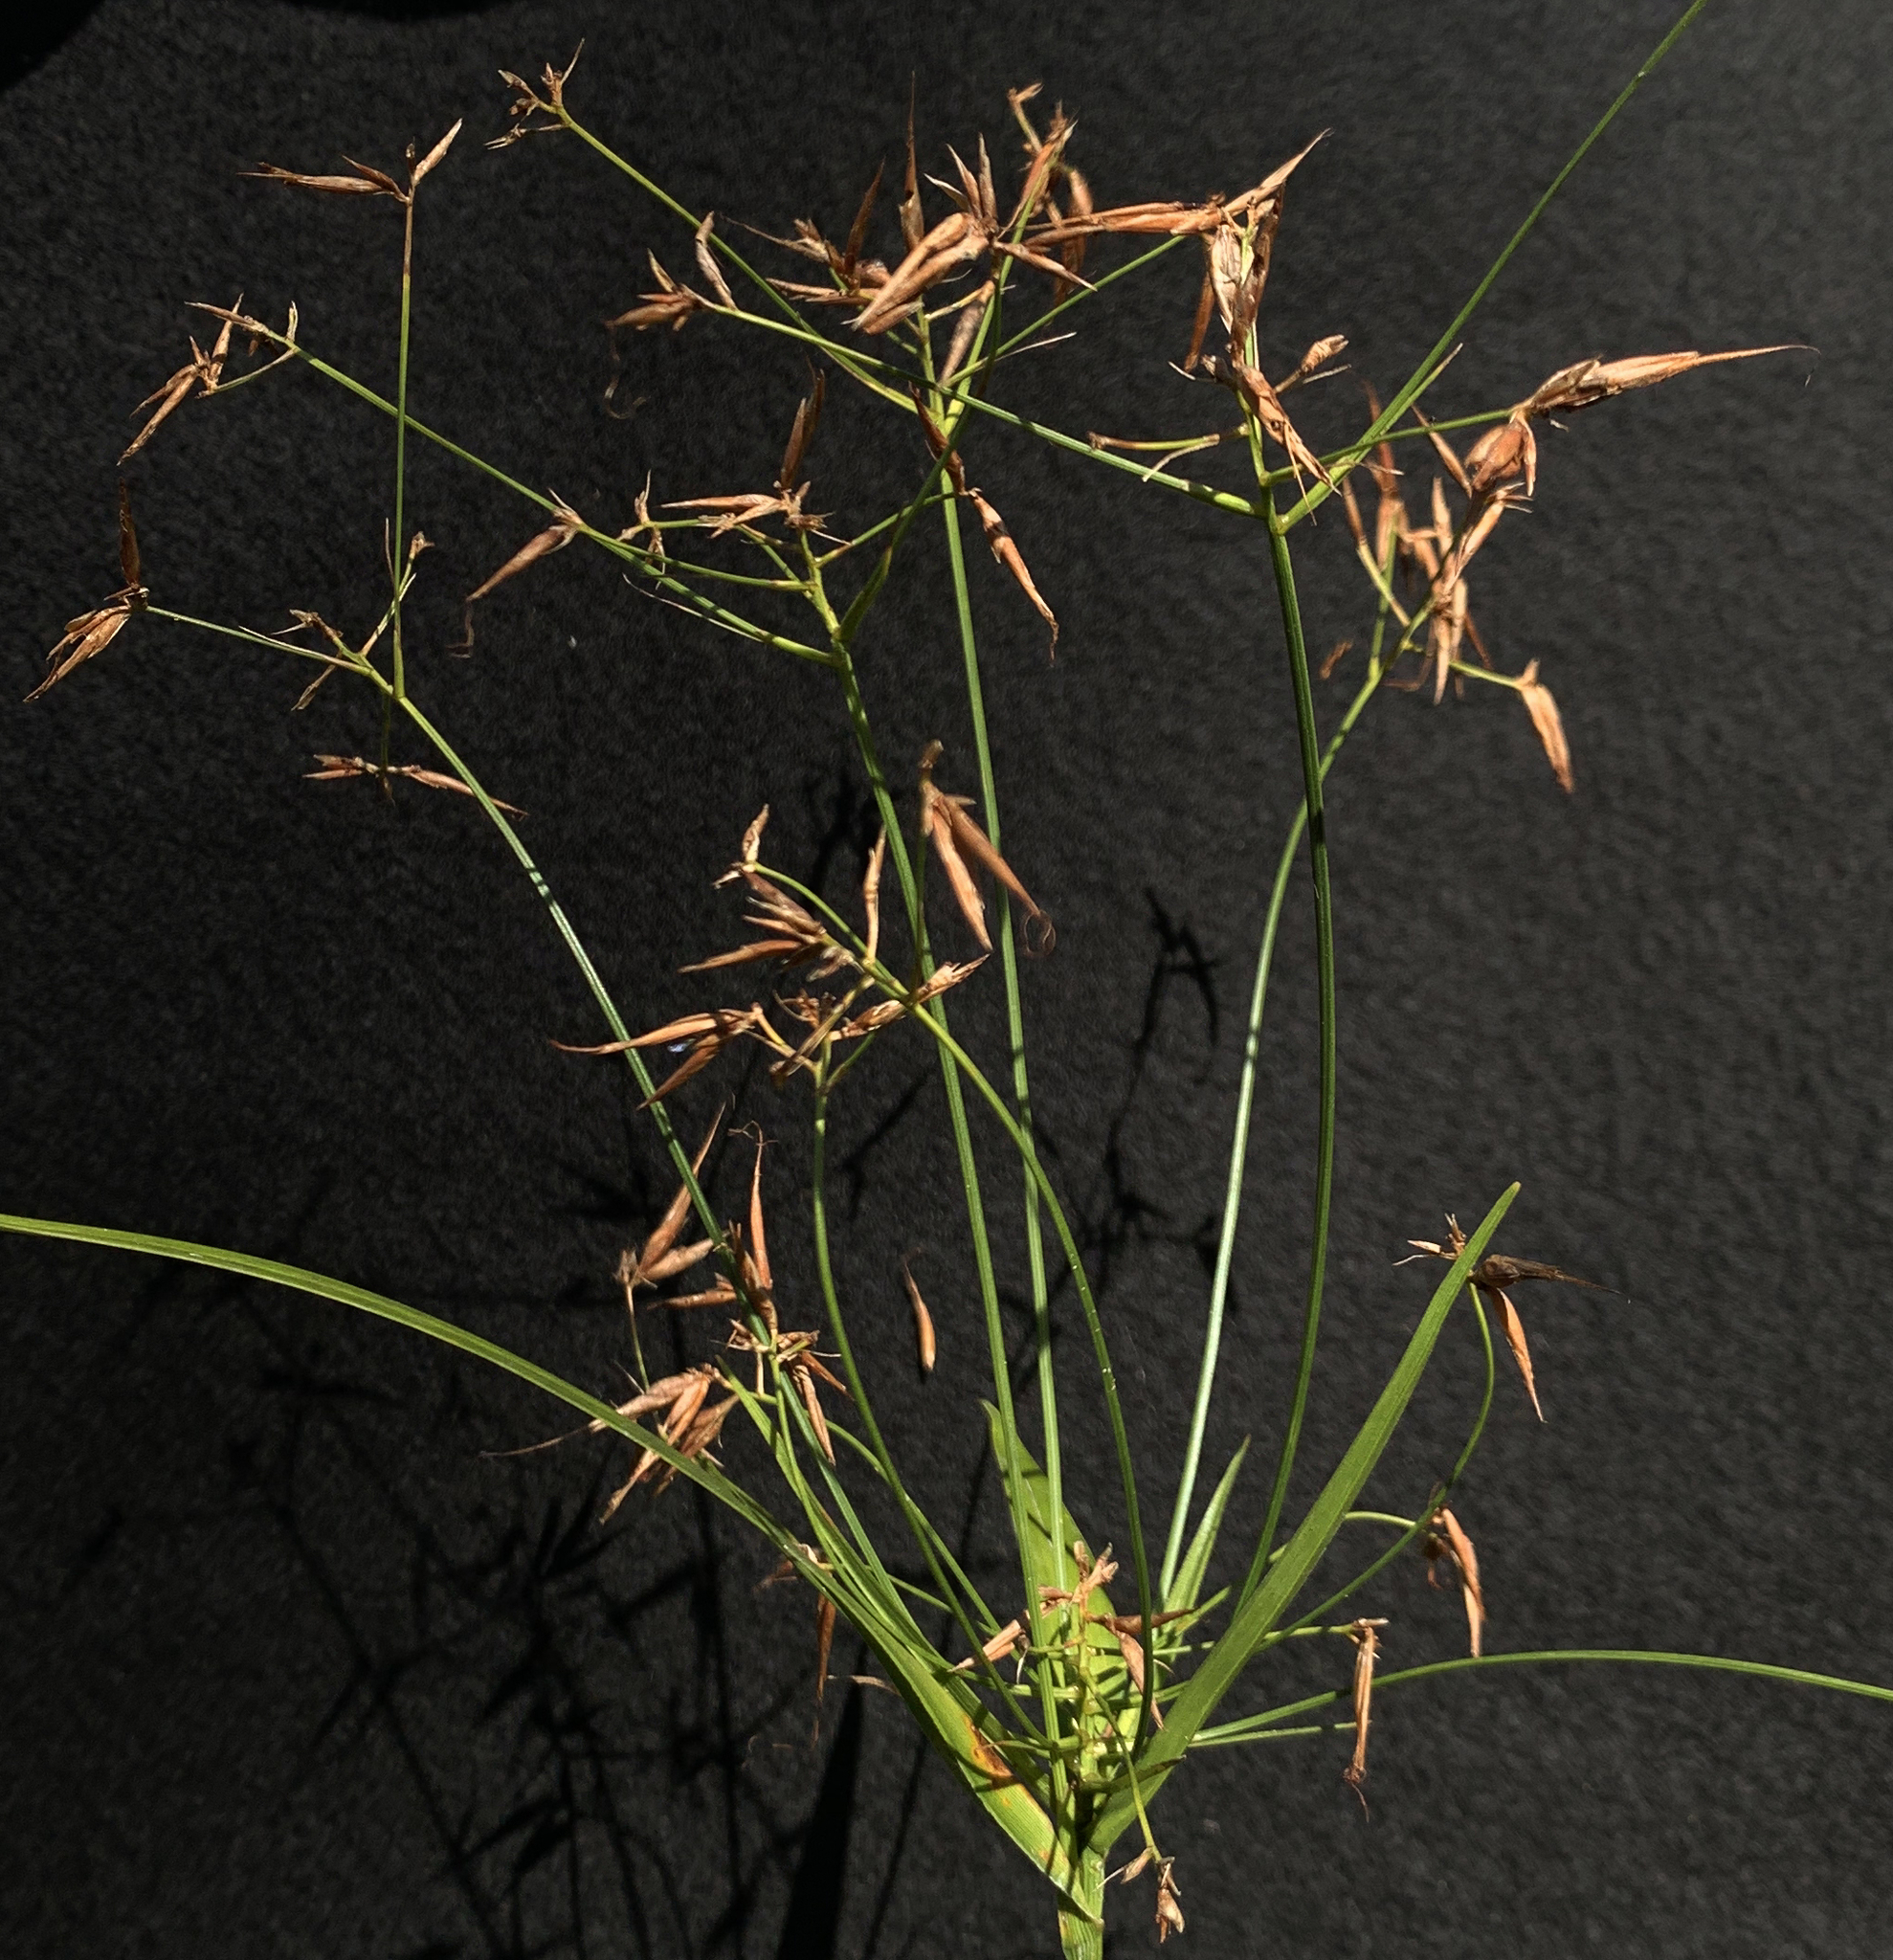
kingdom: Plantae
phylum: Tracheophyta
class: Liliopsida
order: Poales
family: Cyperaceae
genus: Rhynchospora
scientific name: Rhynchospora inundata
